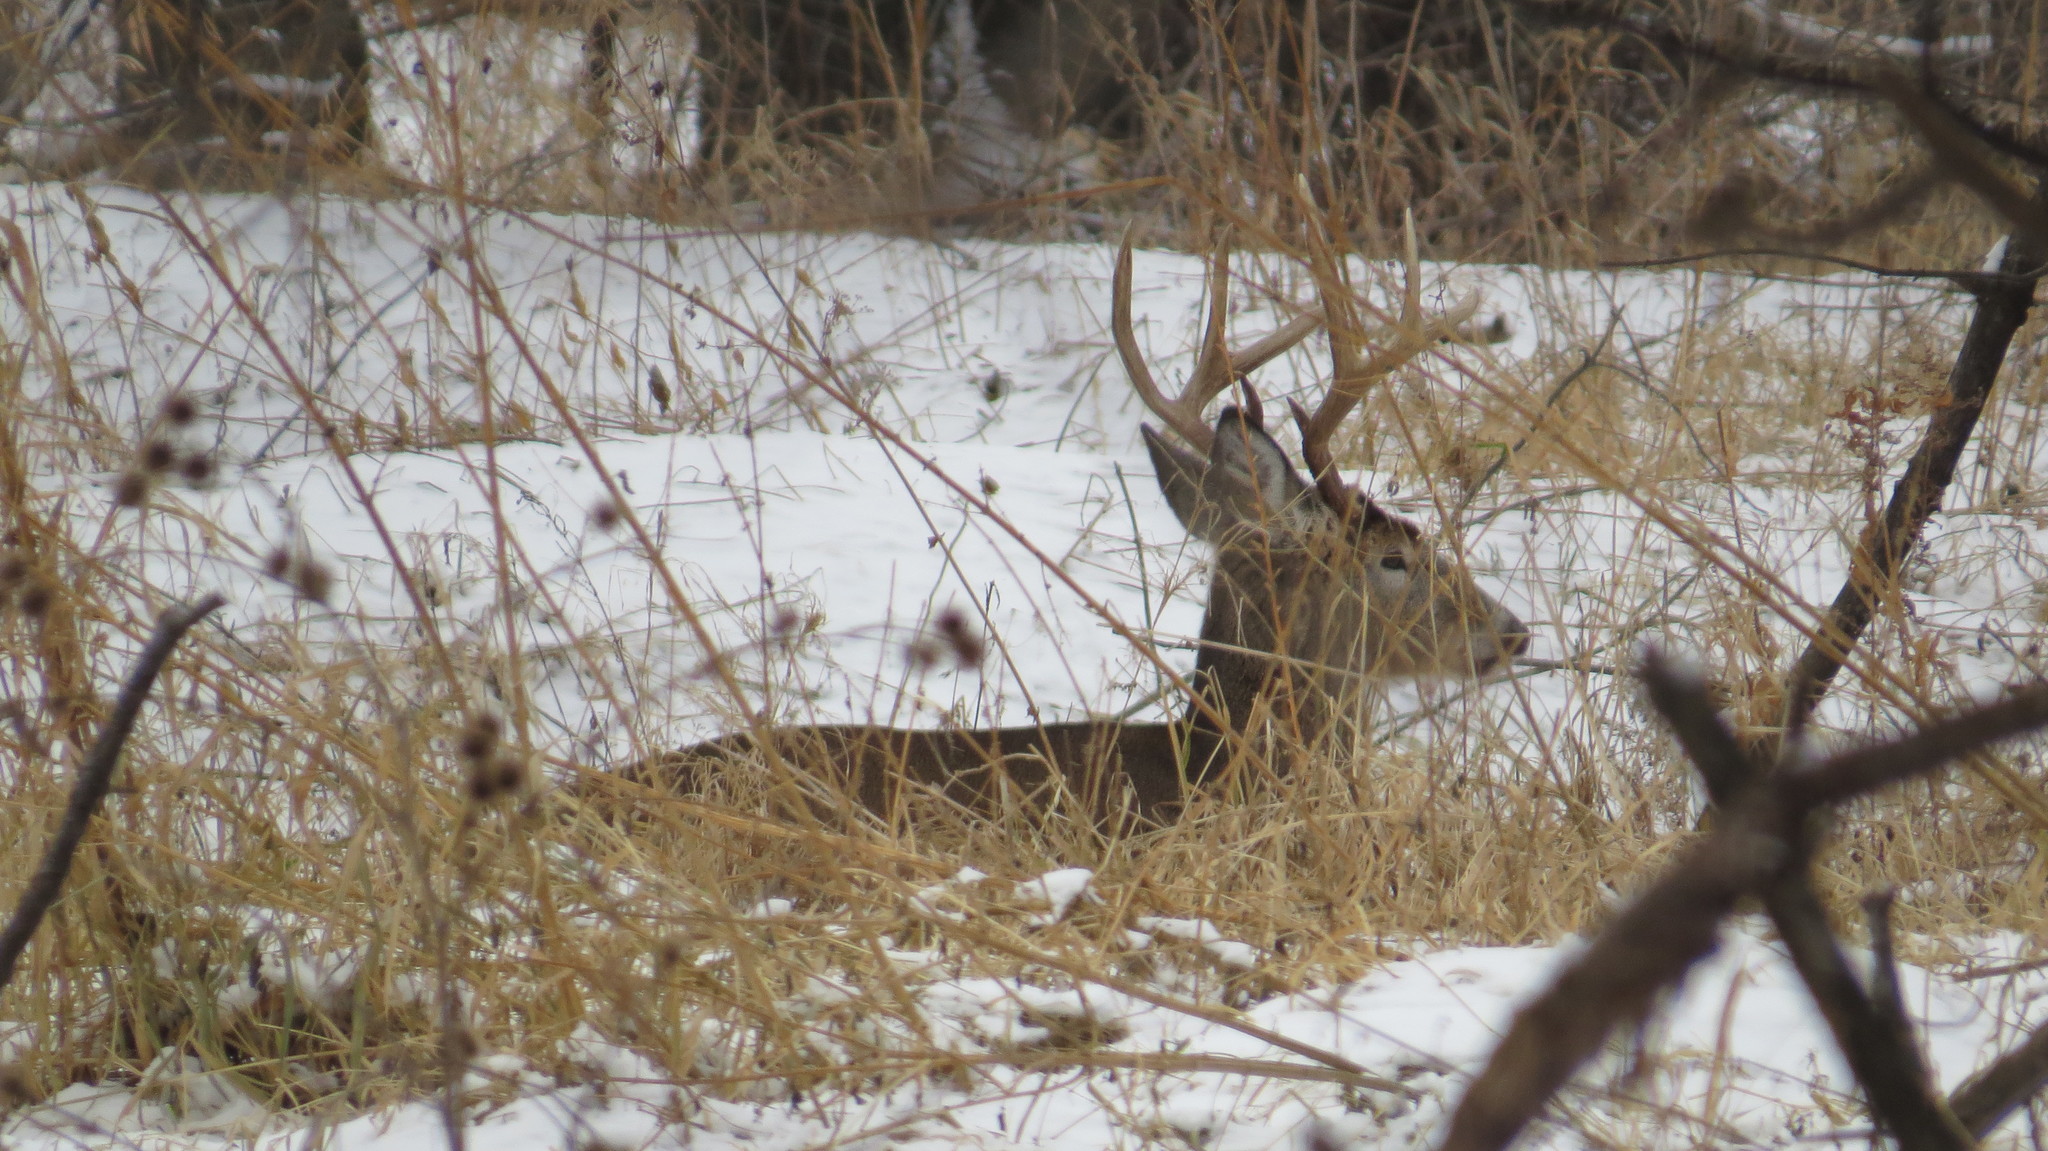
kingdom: Animalia
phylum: Chordata
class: Mammalia
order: Artiodactyla
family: Cervidae
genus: Odocoileus
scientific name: Odocoileus virginianus
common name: White-tailed deer
